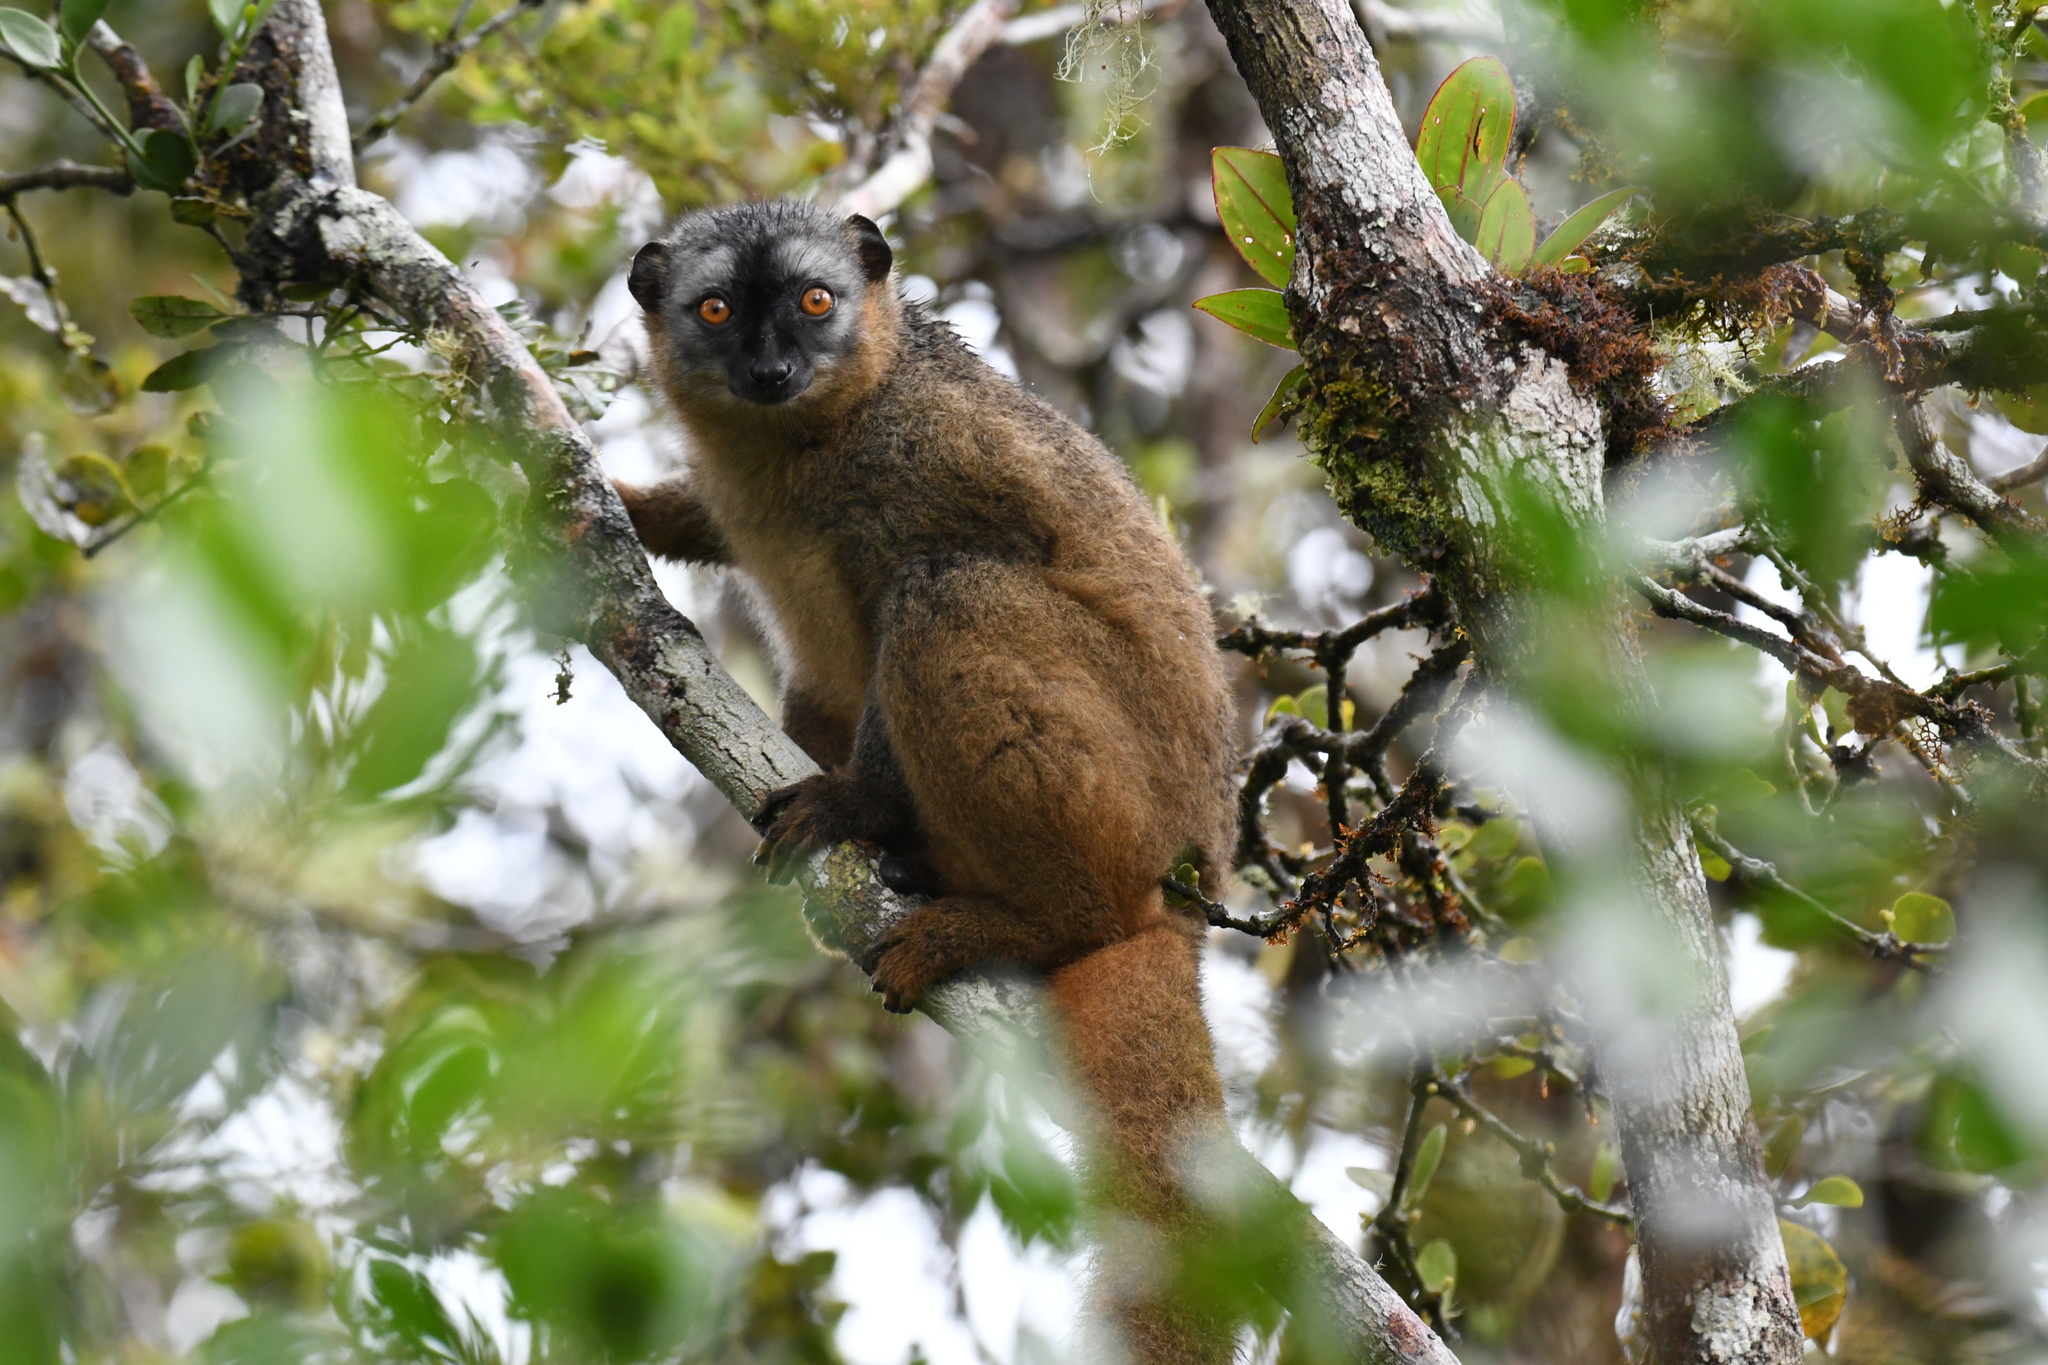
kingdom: Animalia
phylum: Chordata
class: Mammalia
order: Primates
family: Lemuridae
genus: Eulemur
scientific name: Eulemur rufifrons
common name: Red-fronted brown lemur
